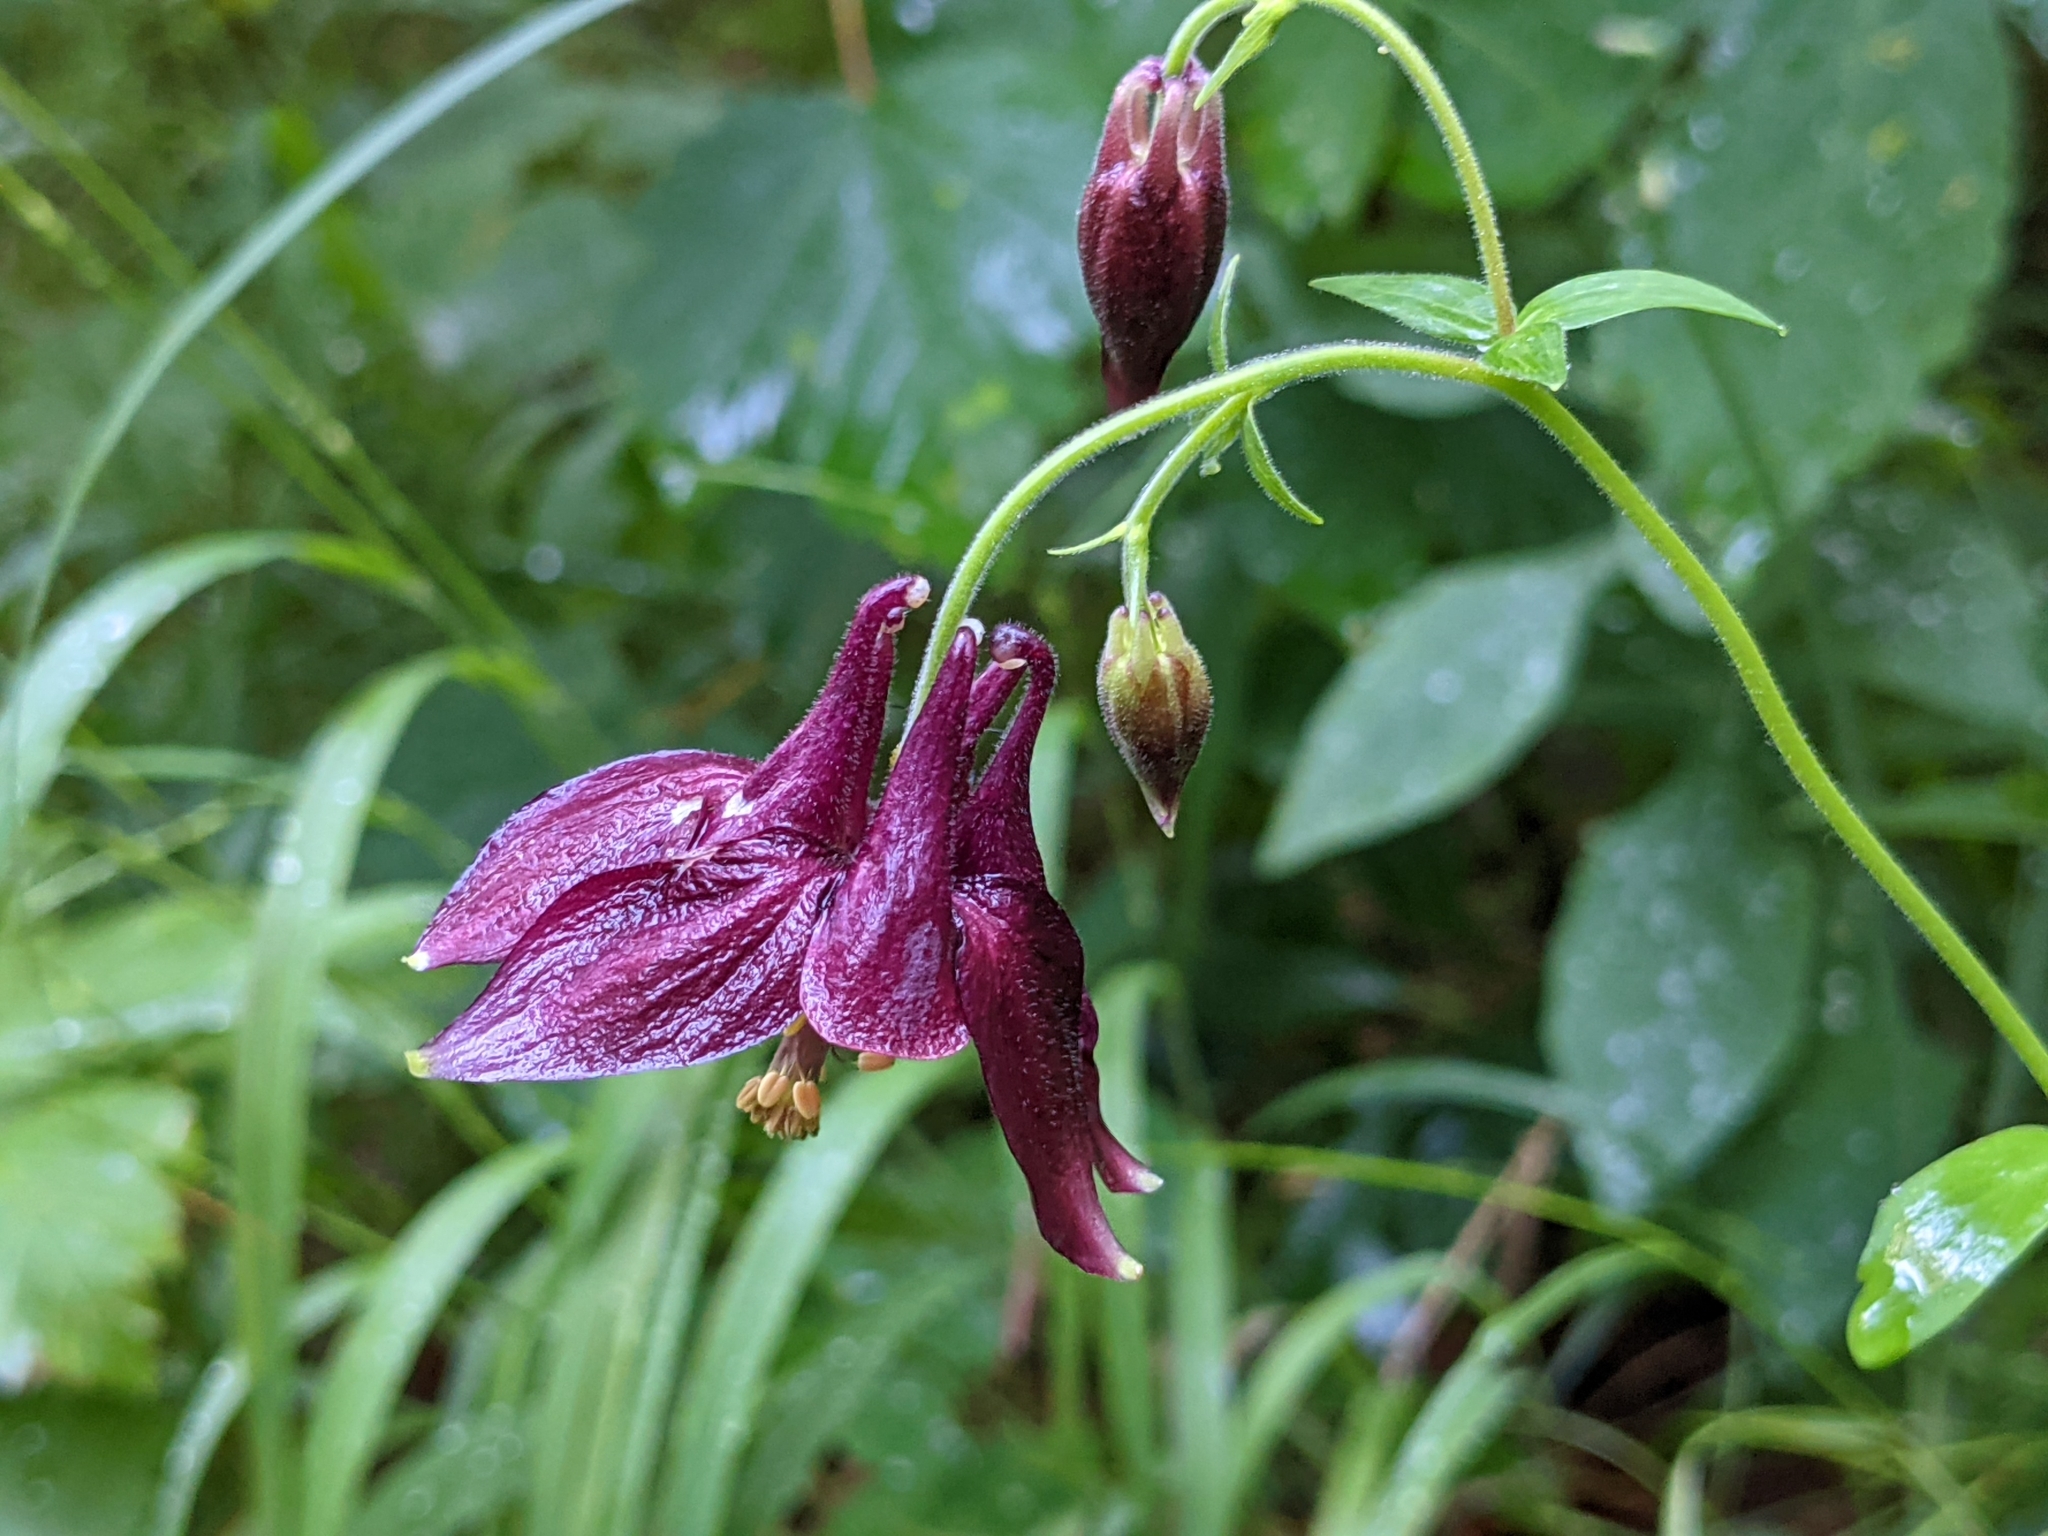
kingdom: Plantae
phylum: Tracheophyta
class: Magnoliopsida
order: Ranunculales
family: Ranunculaceae
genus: Aquilegia
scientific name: Aquilegia atrata
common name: Dark columbine
